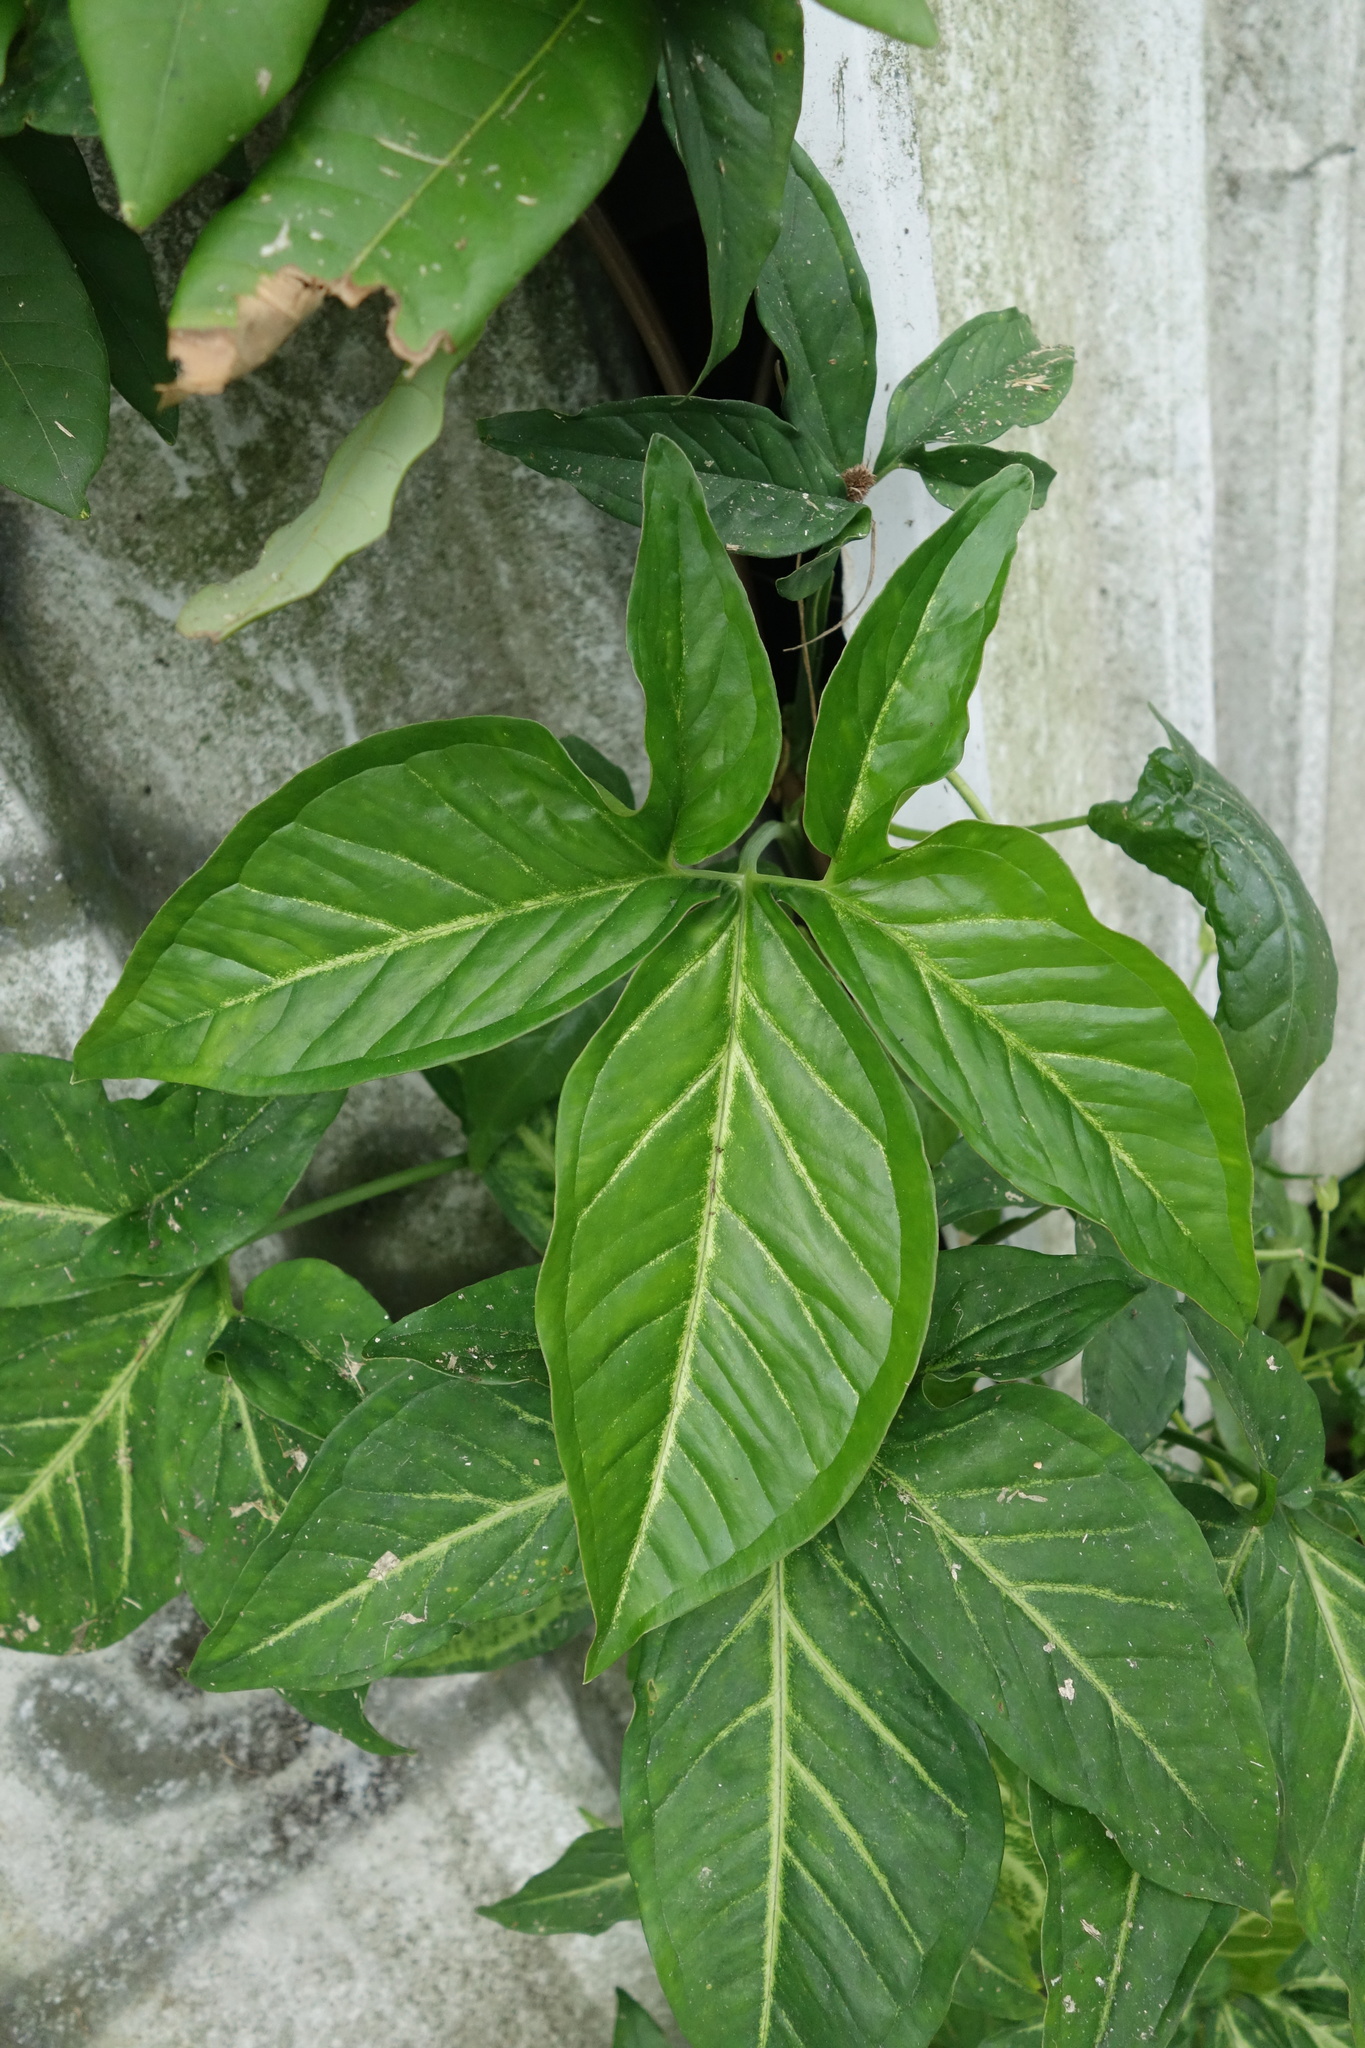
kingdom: Plantae
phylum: Tracheophyta
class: Liliopsida
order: Alismatales
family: Araceae
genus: Syngonium
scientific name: Syngonium angustatum
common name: Fivefingers
